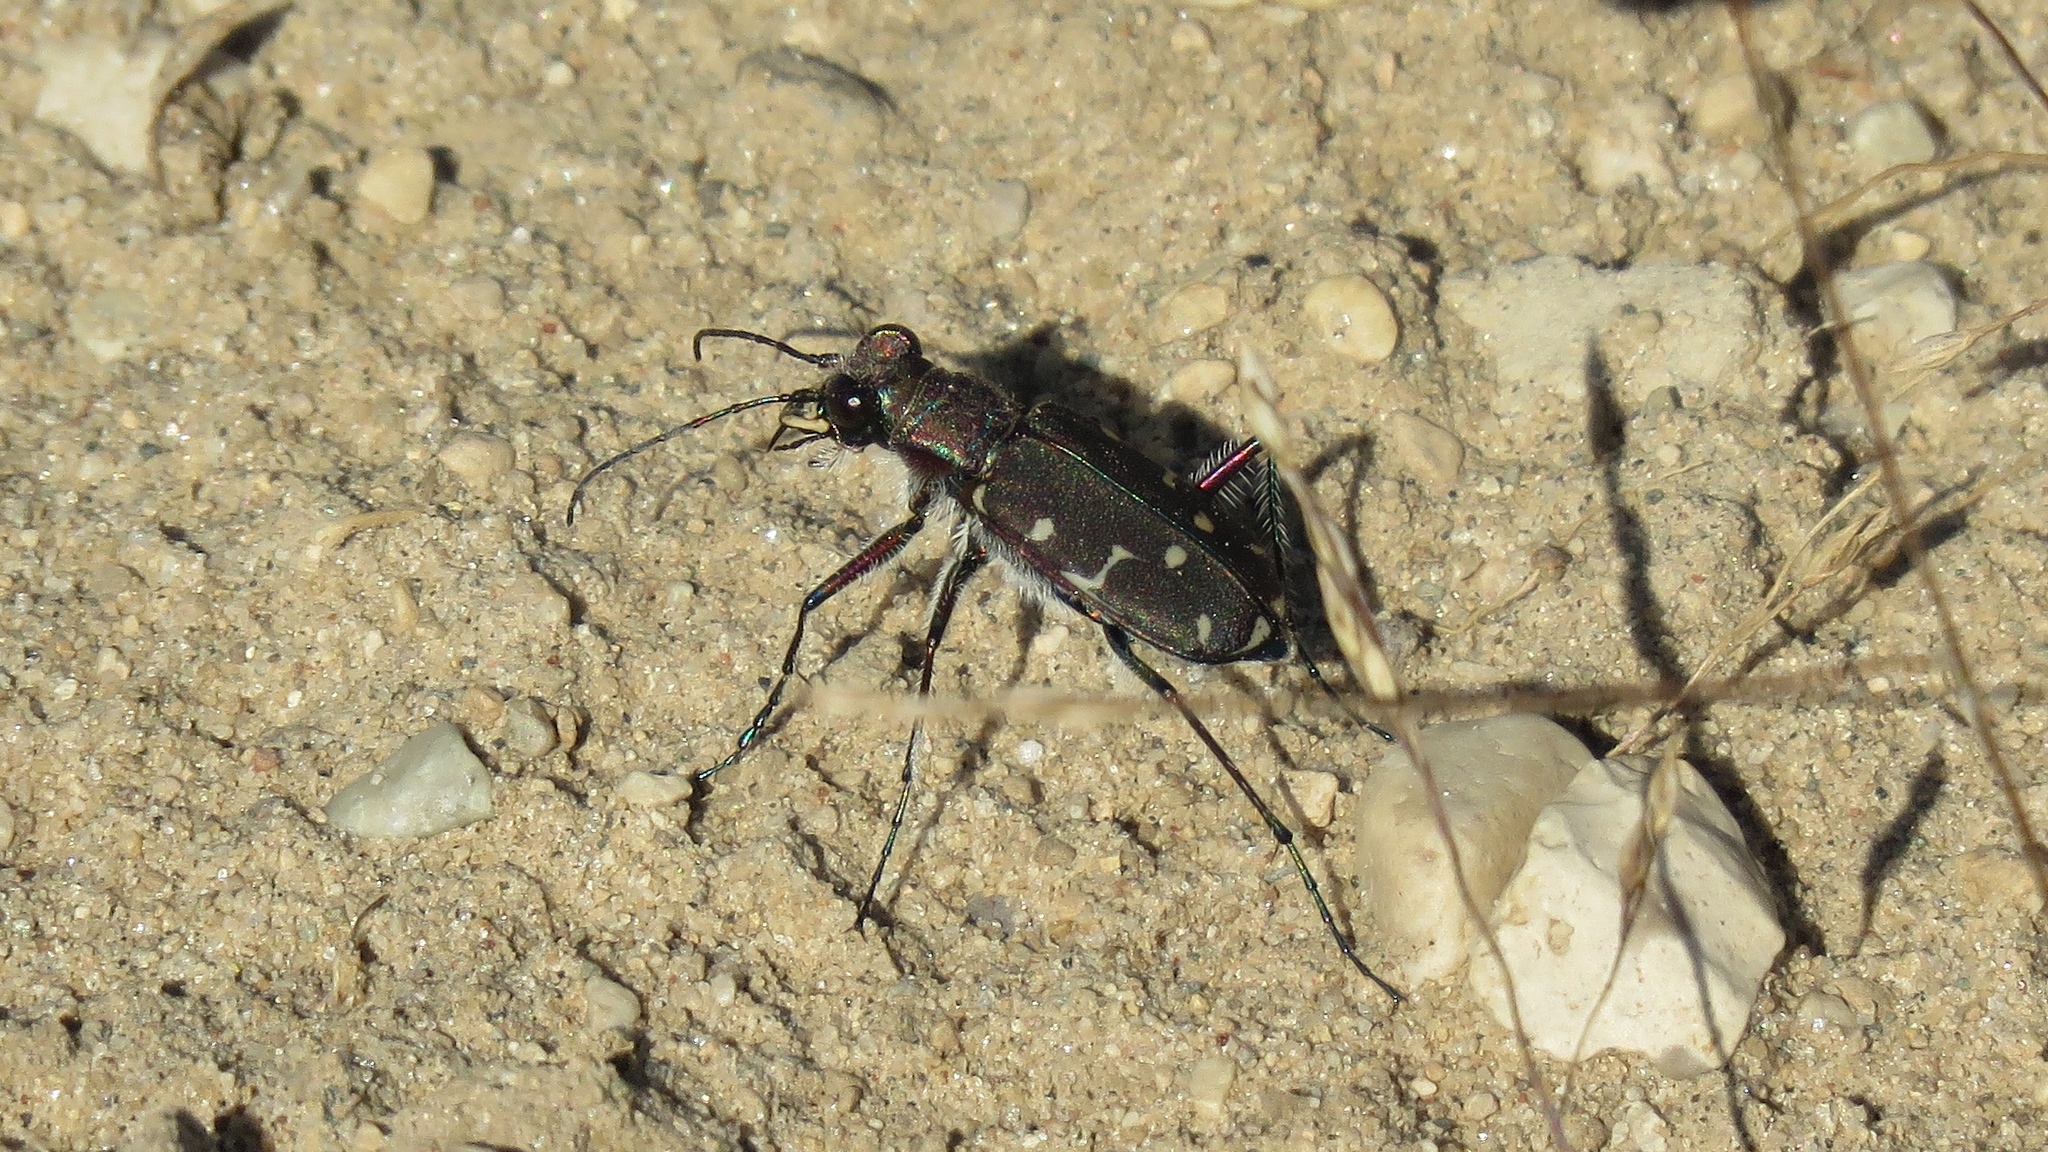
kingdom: Animalia
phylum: Arthropoda
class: Insecta
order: Coleoptera
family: Carabidae
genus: Cicindela
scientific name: Cicindela duodecimguttata
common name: Twelve-spotted tiger beetle
